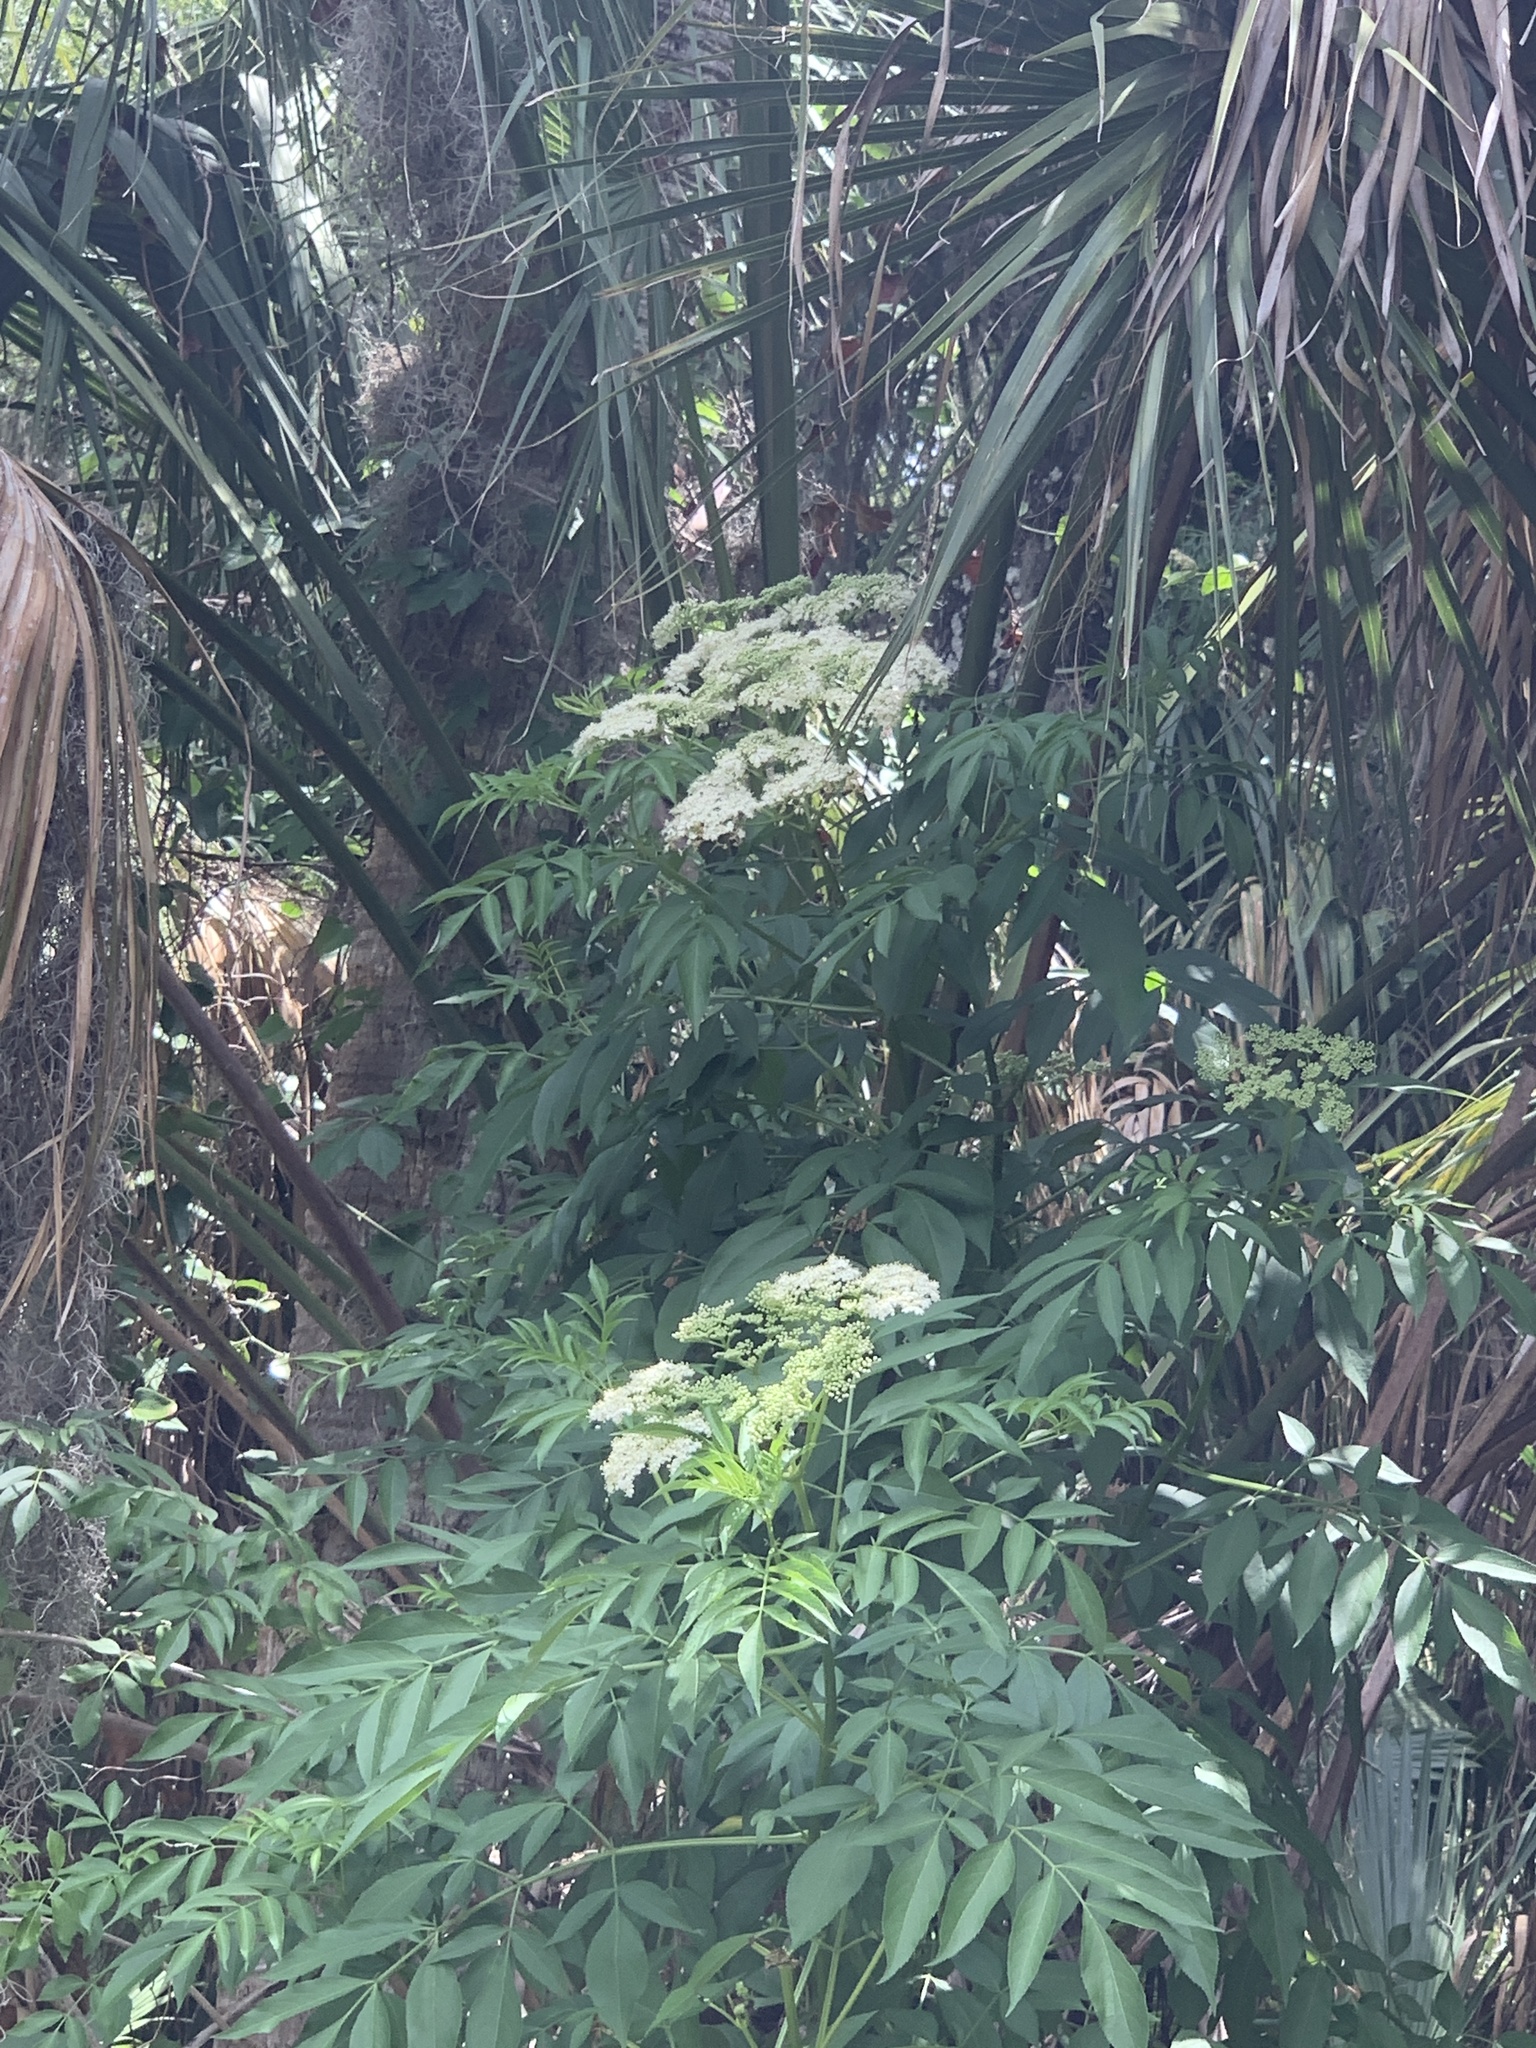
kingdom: Plantae
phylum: Tracheophyta
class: Magnoliopsida
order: Dipsacales
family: Viburnaceae
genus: Sambucus
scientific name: Sambucus canadensis
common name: American elder
